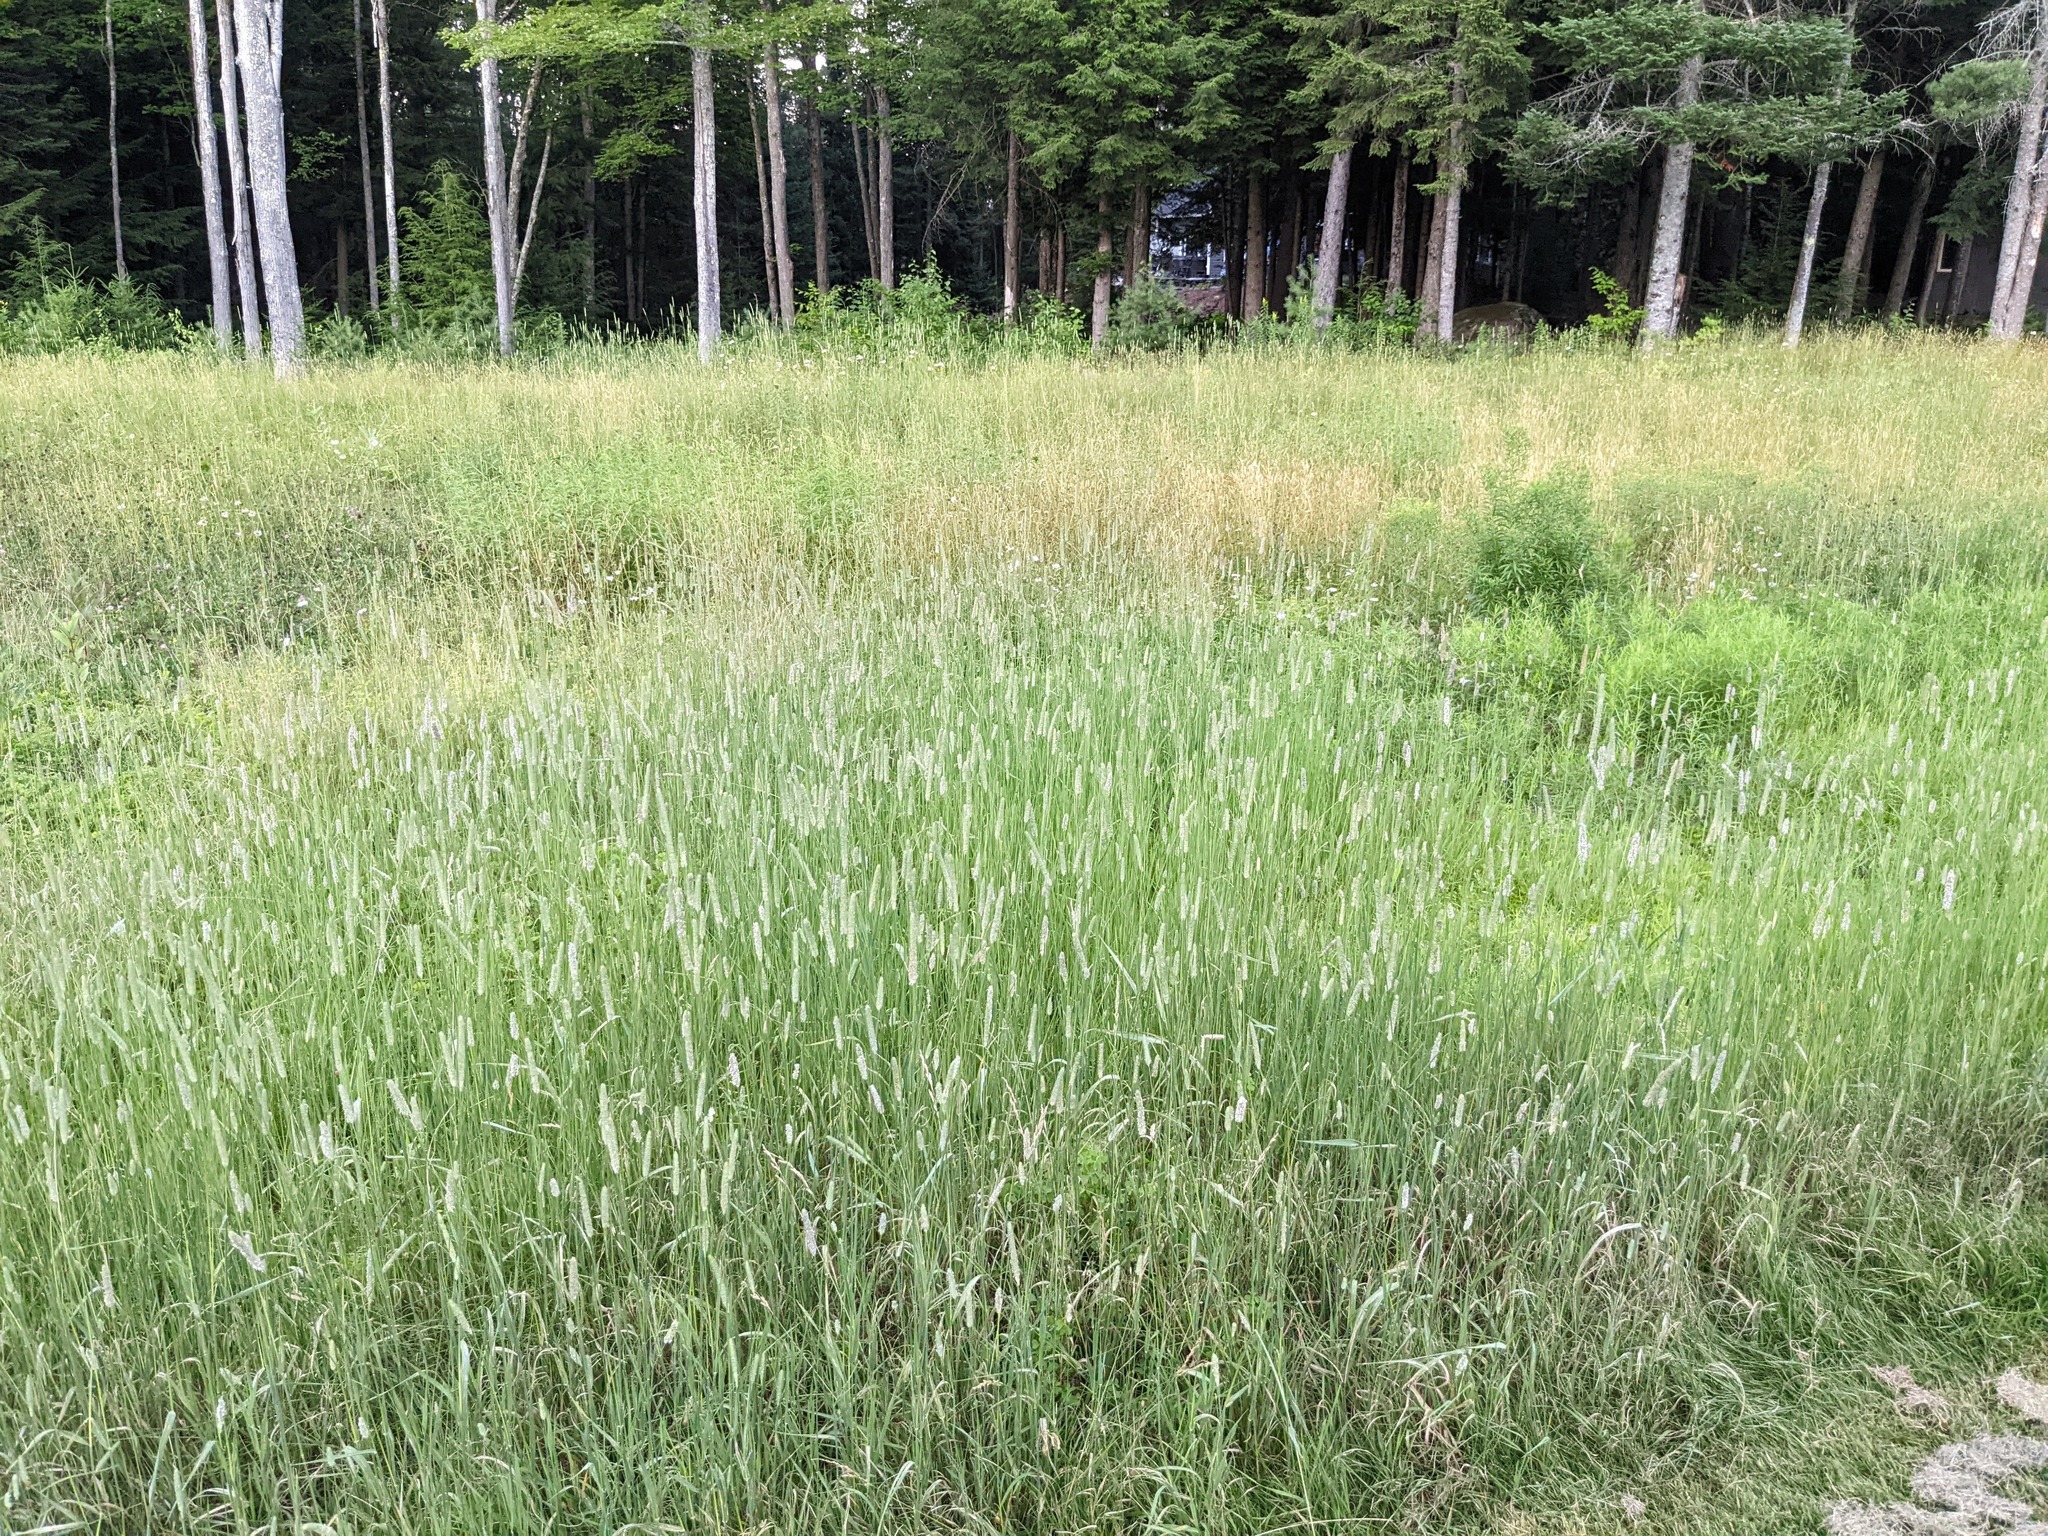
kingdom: Plantae
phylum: Tracheophyta
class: Liliopsida
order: Poales
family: Poaceae
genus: Phleum
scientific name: Phleum pratense
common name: Timothy grass
